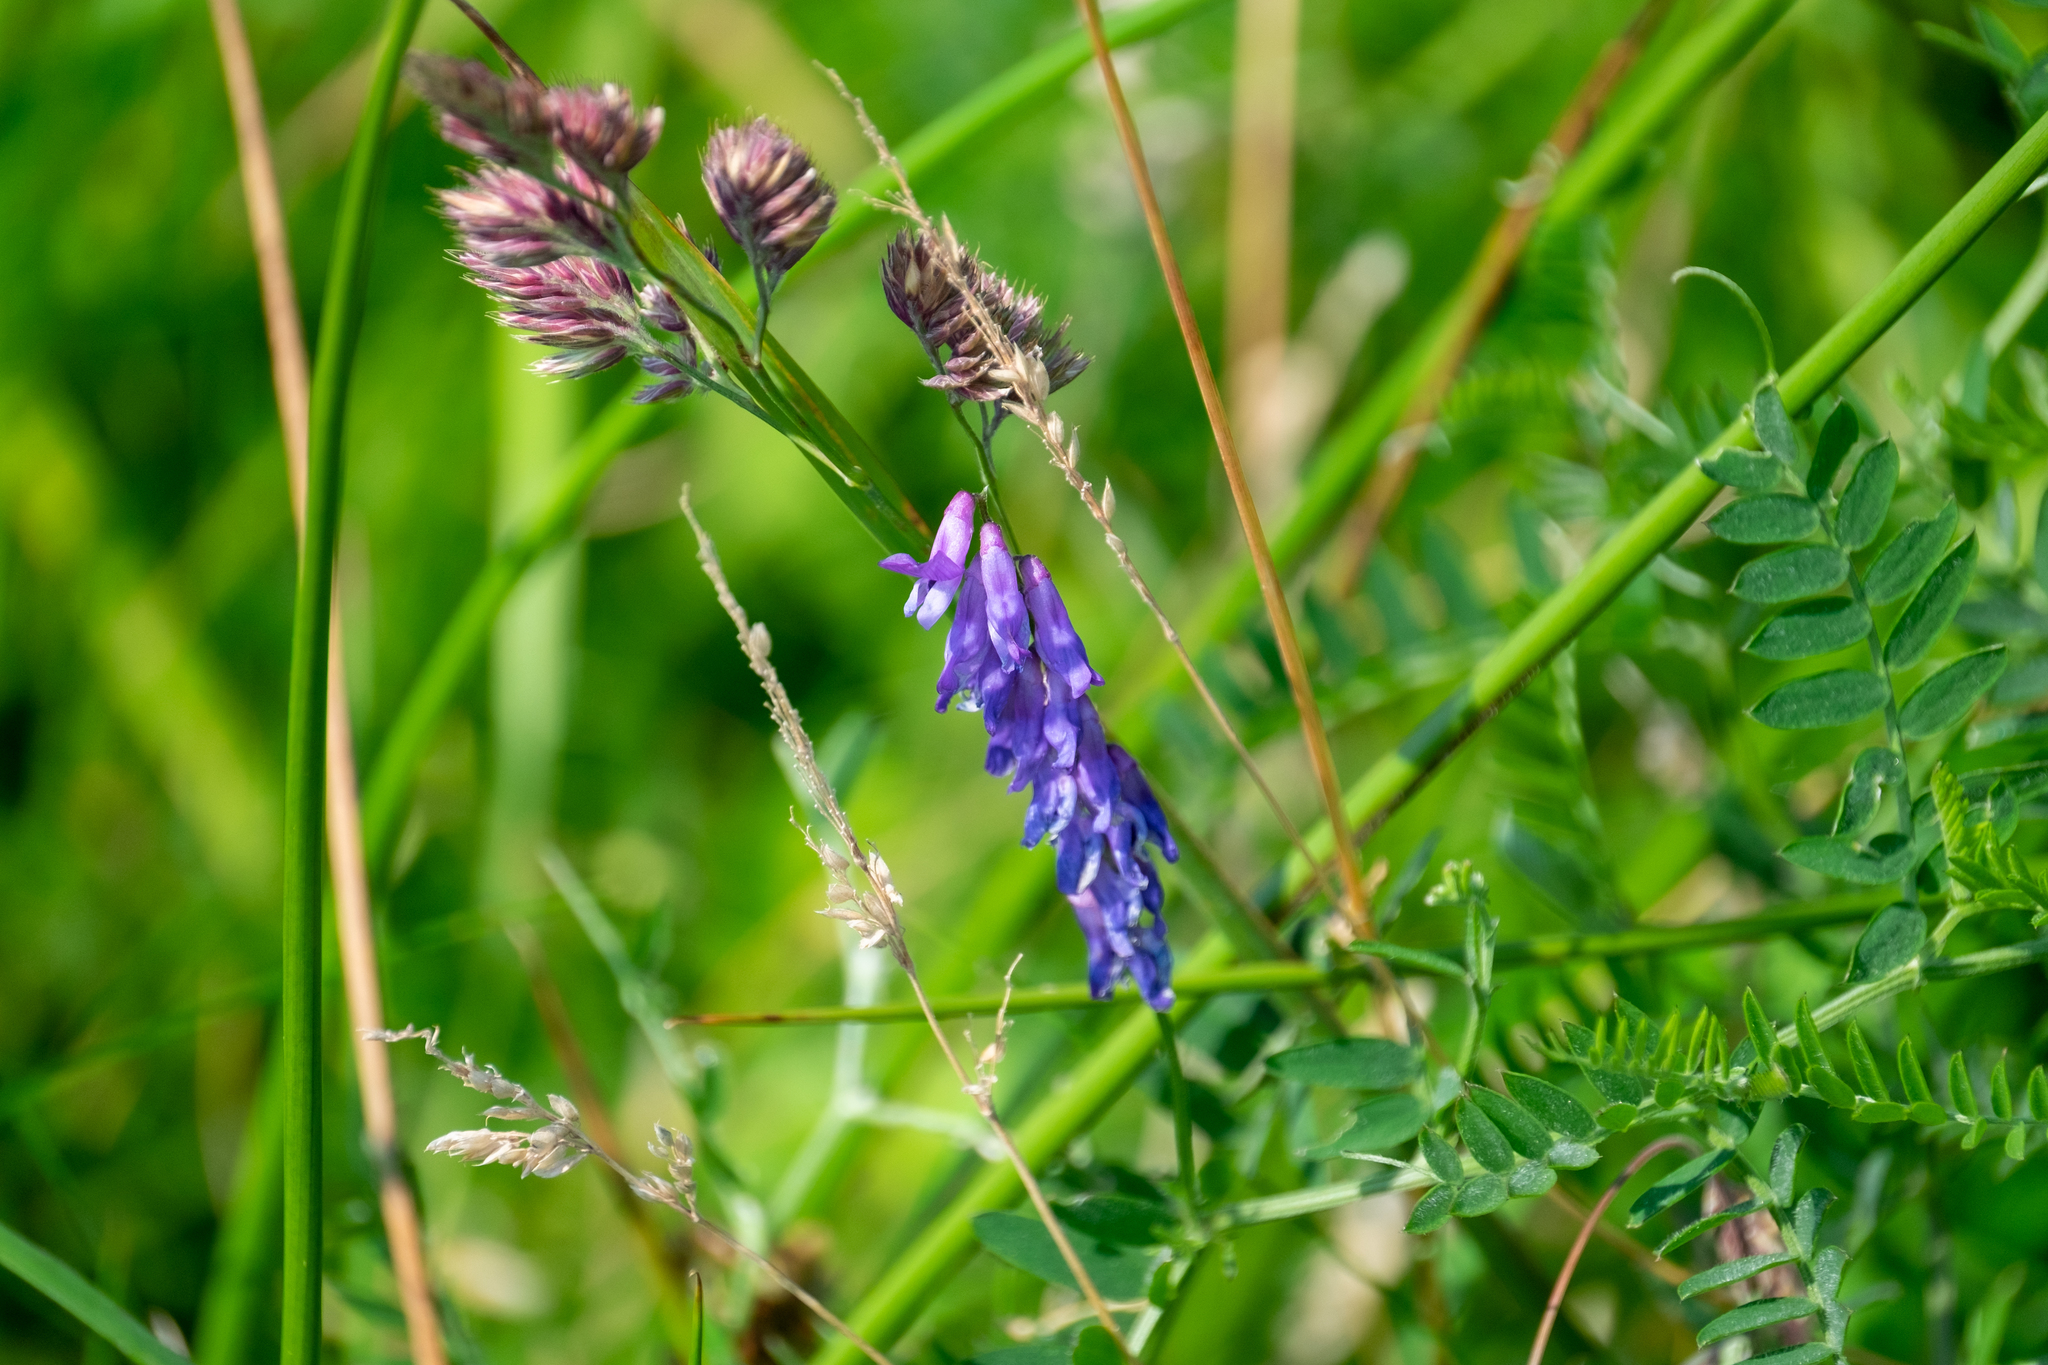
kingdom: Plantae
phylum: Tracheophyta
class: Magnoliopsida
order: Fabales
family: Fabaceae
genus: Vicia
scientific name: Vicia cracca
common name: Bird vetch
